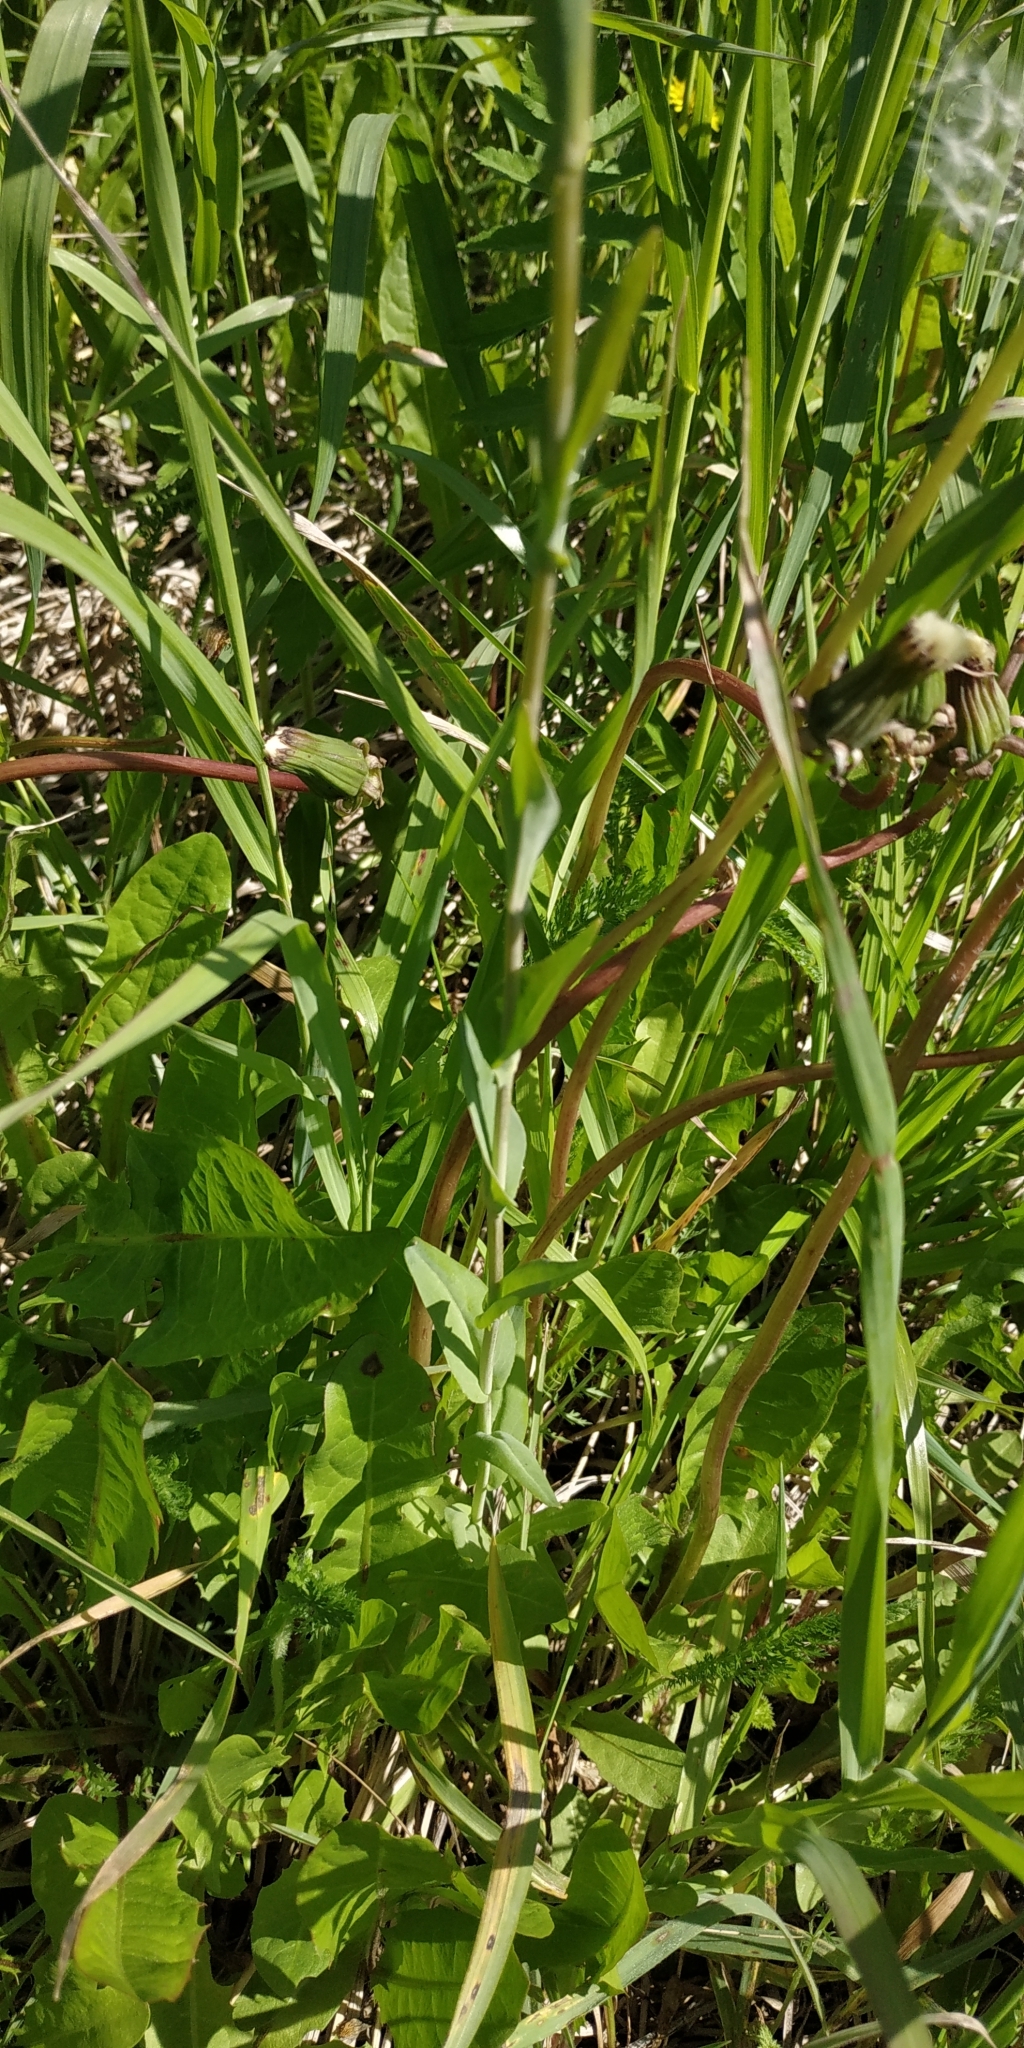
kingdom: Plantae
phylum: Tracheophyta
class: Magnoliopsida
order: Brassicales
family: Brassicaceae
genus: Turritis
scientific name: Turritis glabra
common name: Tower rockcress
